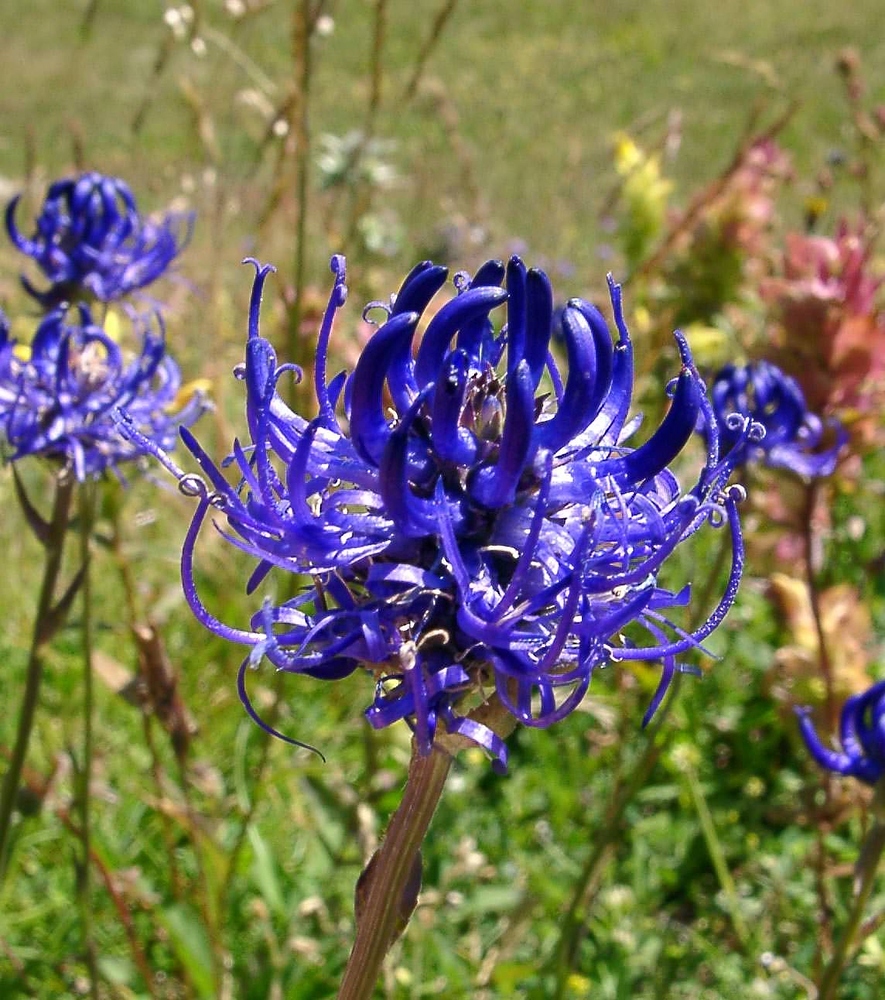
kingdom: Plantae
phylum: Tracheophyta
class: Magnoliopsida
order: Asterales
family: Campanulaceae
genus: Phyteuma
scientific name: Phyteuma orbiculare
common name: Round-headed rampion
